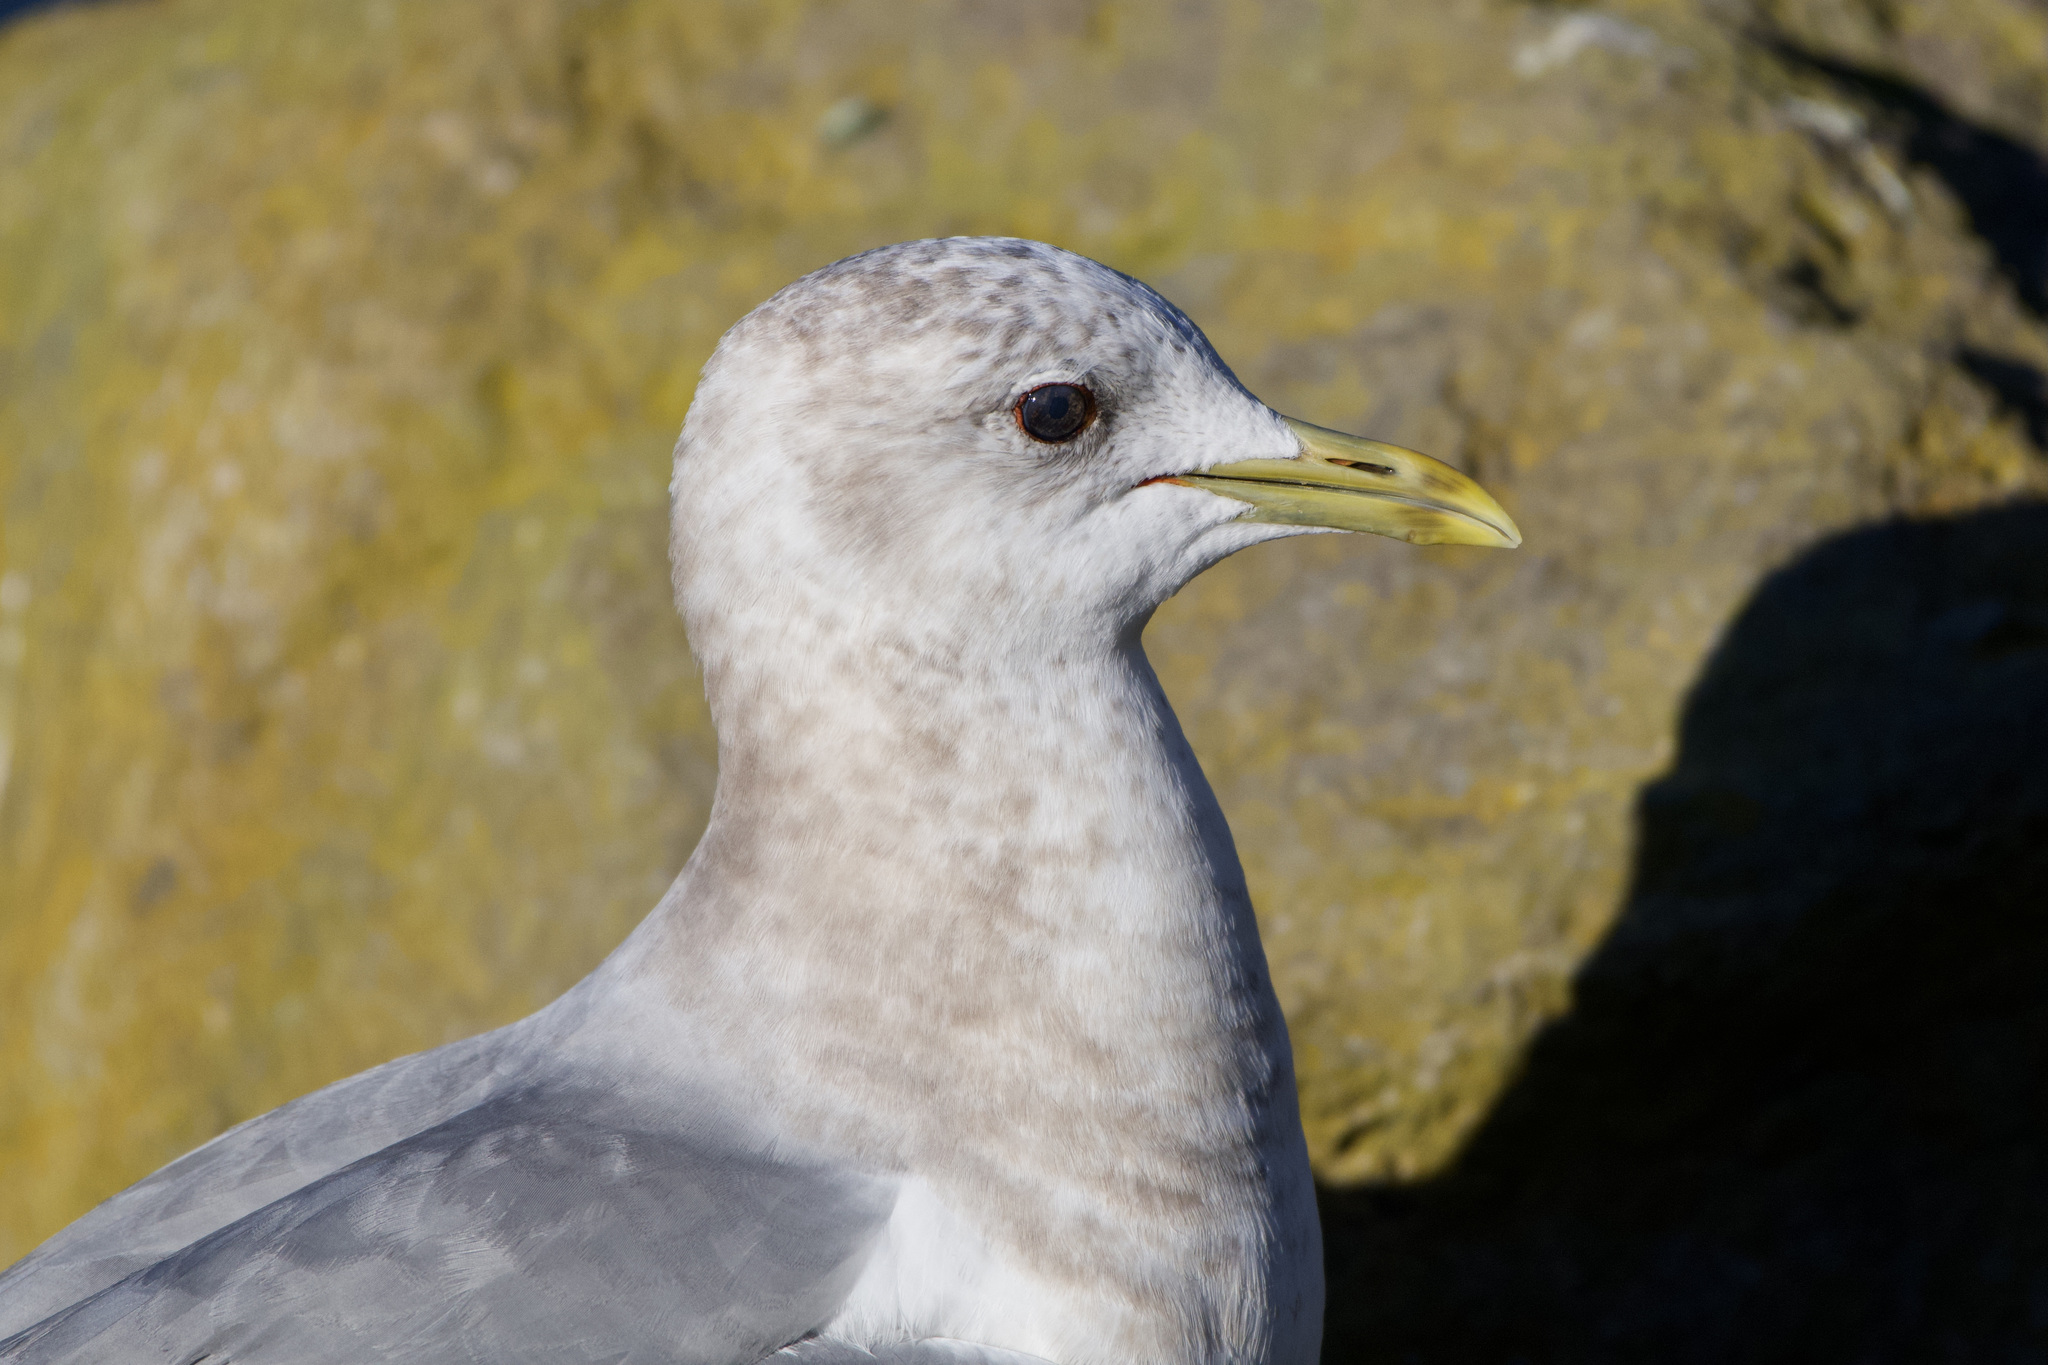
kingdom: Animalia
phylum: Chordata
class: Aves
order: Charadriiformes
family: Laridae
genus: Larus
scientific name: Larus brachyrhynchus
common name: Short-billed gull
